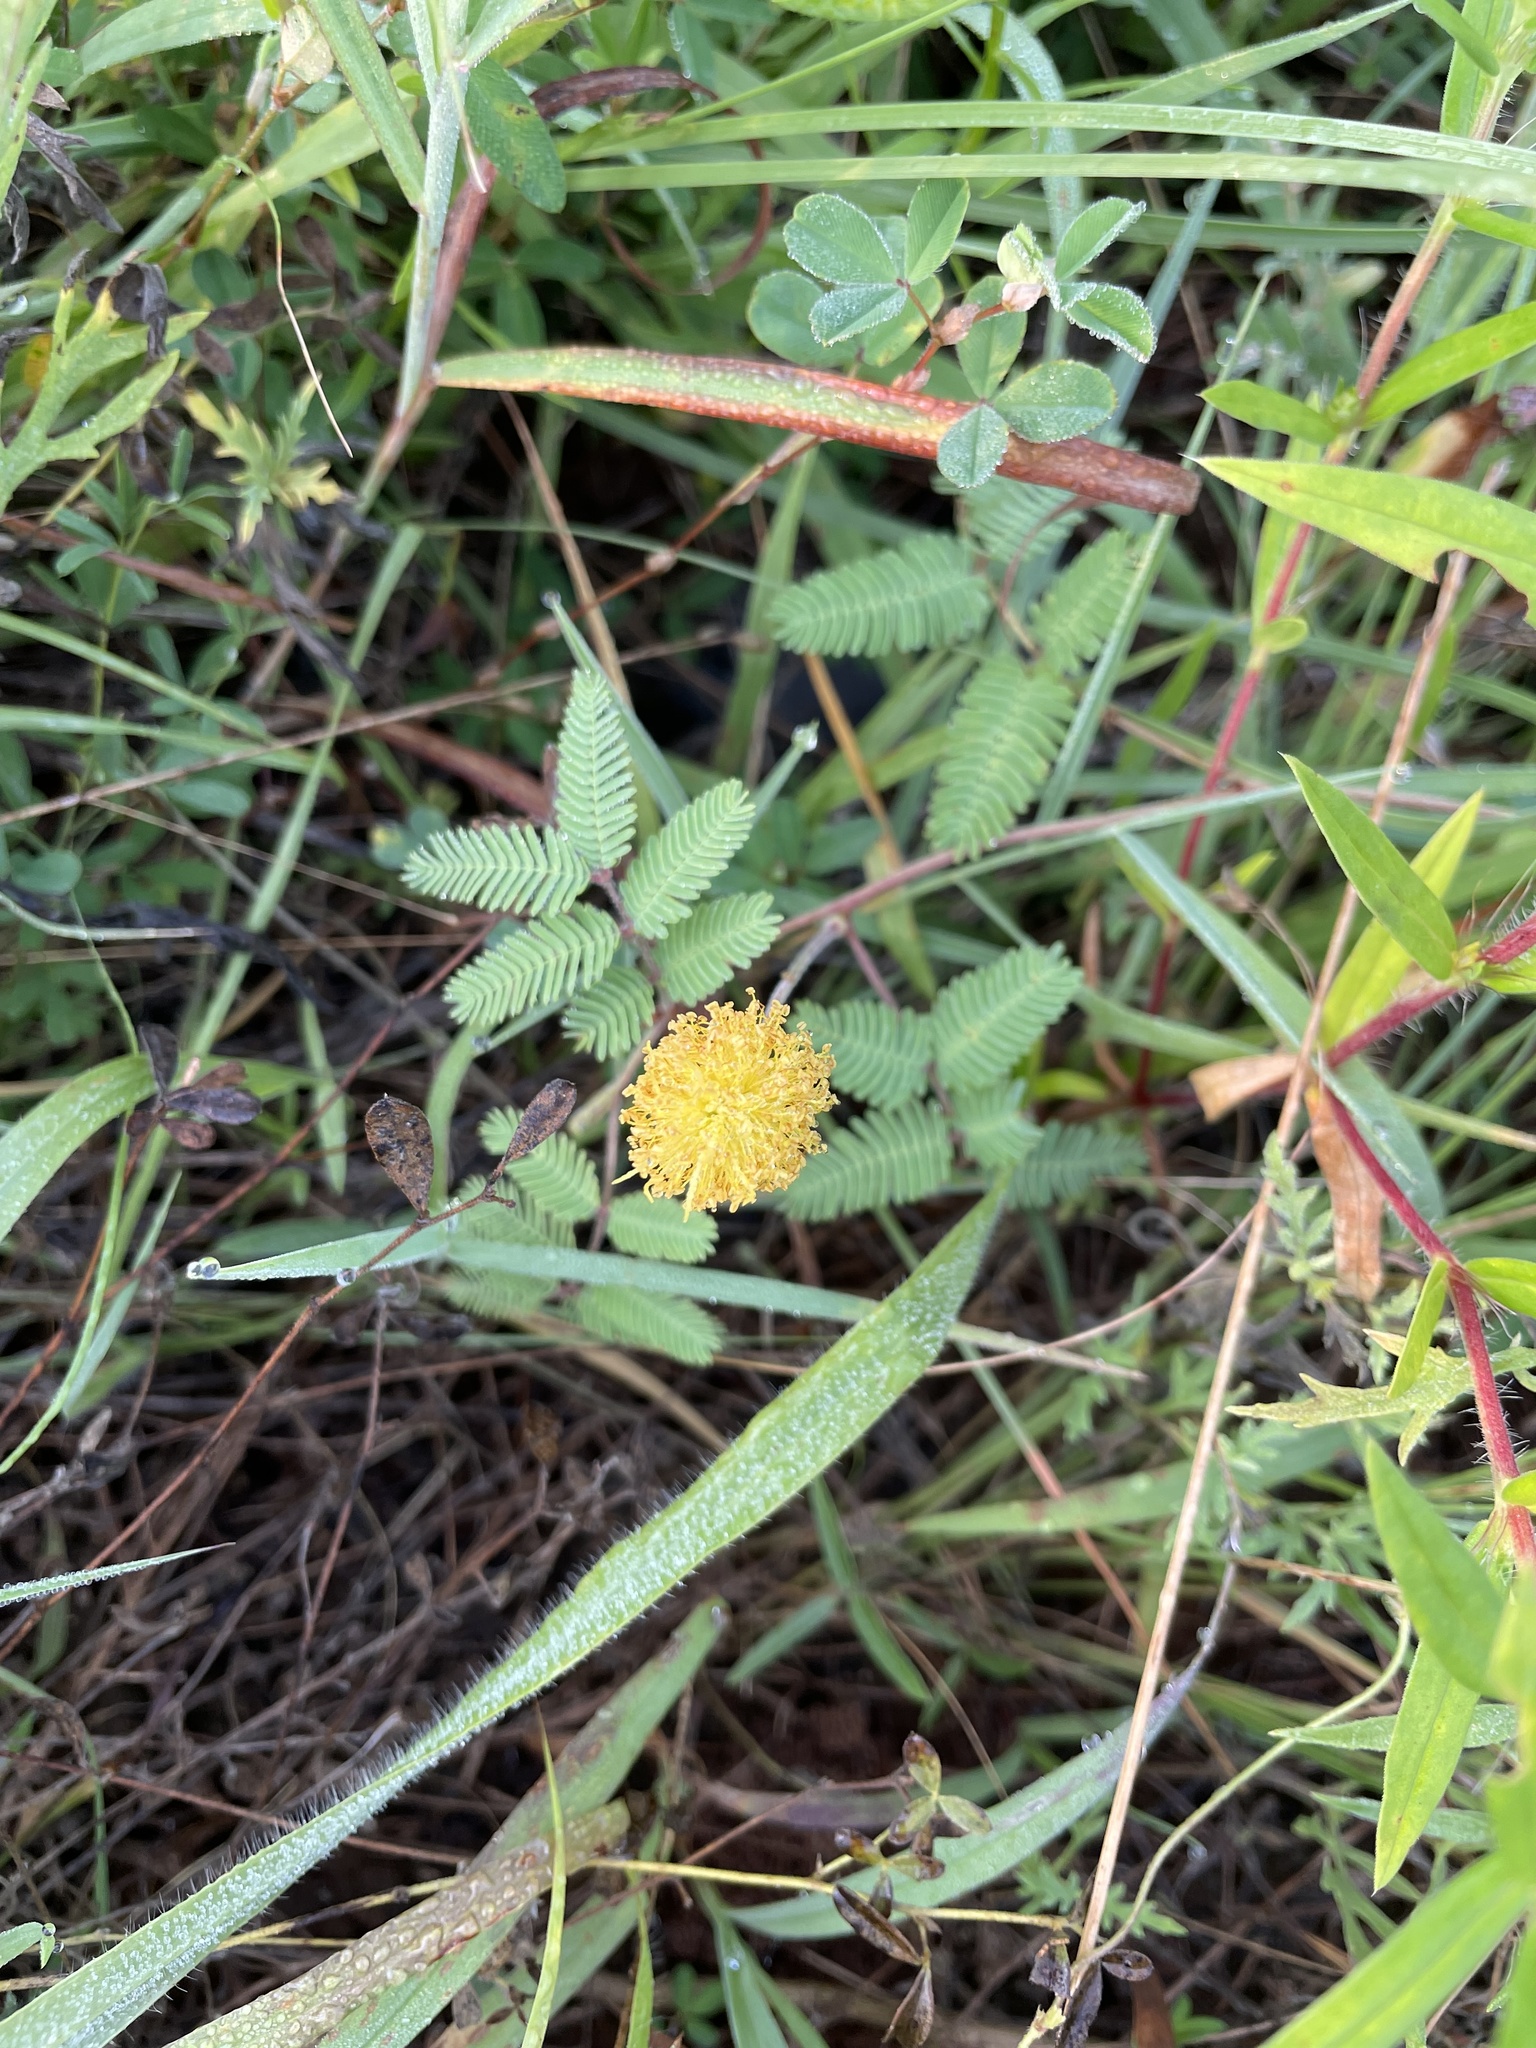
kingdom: Plantae
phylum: Tracheophyta
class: Magnoliopsida
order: Fabales
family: Fabaceae
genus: Neptunia
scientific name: Neptunia lutea
